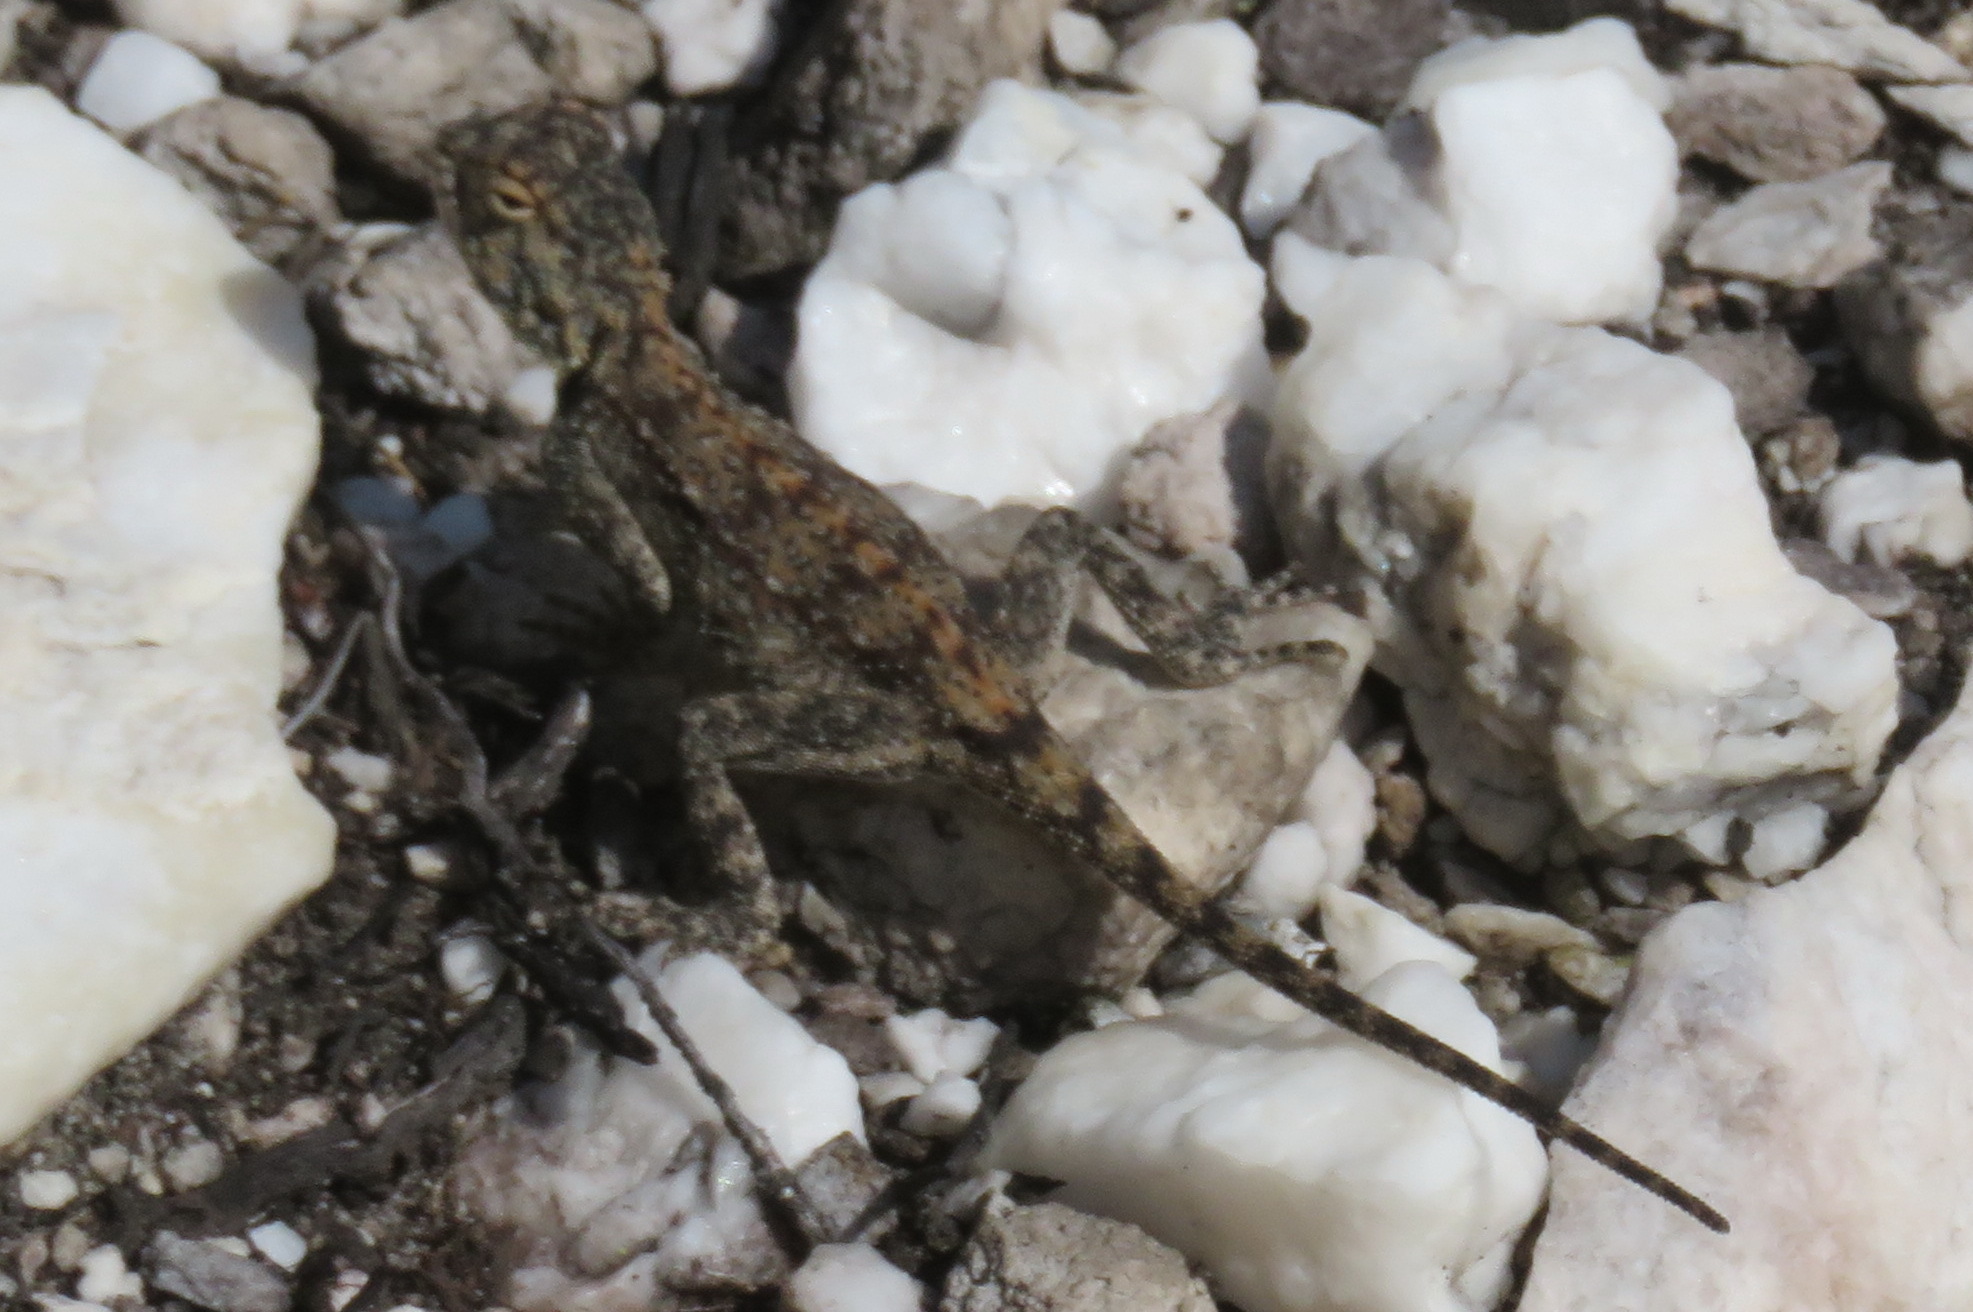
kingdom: Animalia
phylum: Chordata
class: Squamata
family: Agamidae
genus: Agama
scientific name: Agama atra
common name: Southern african rock agama
